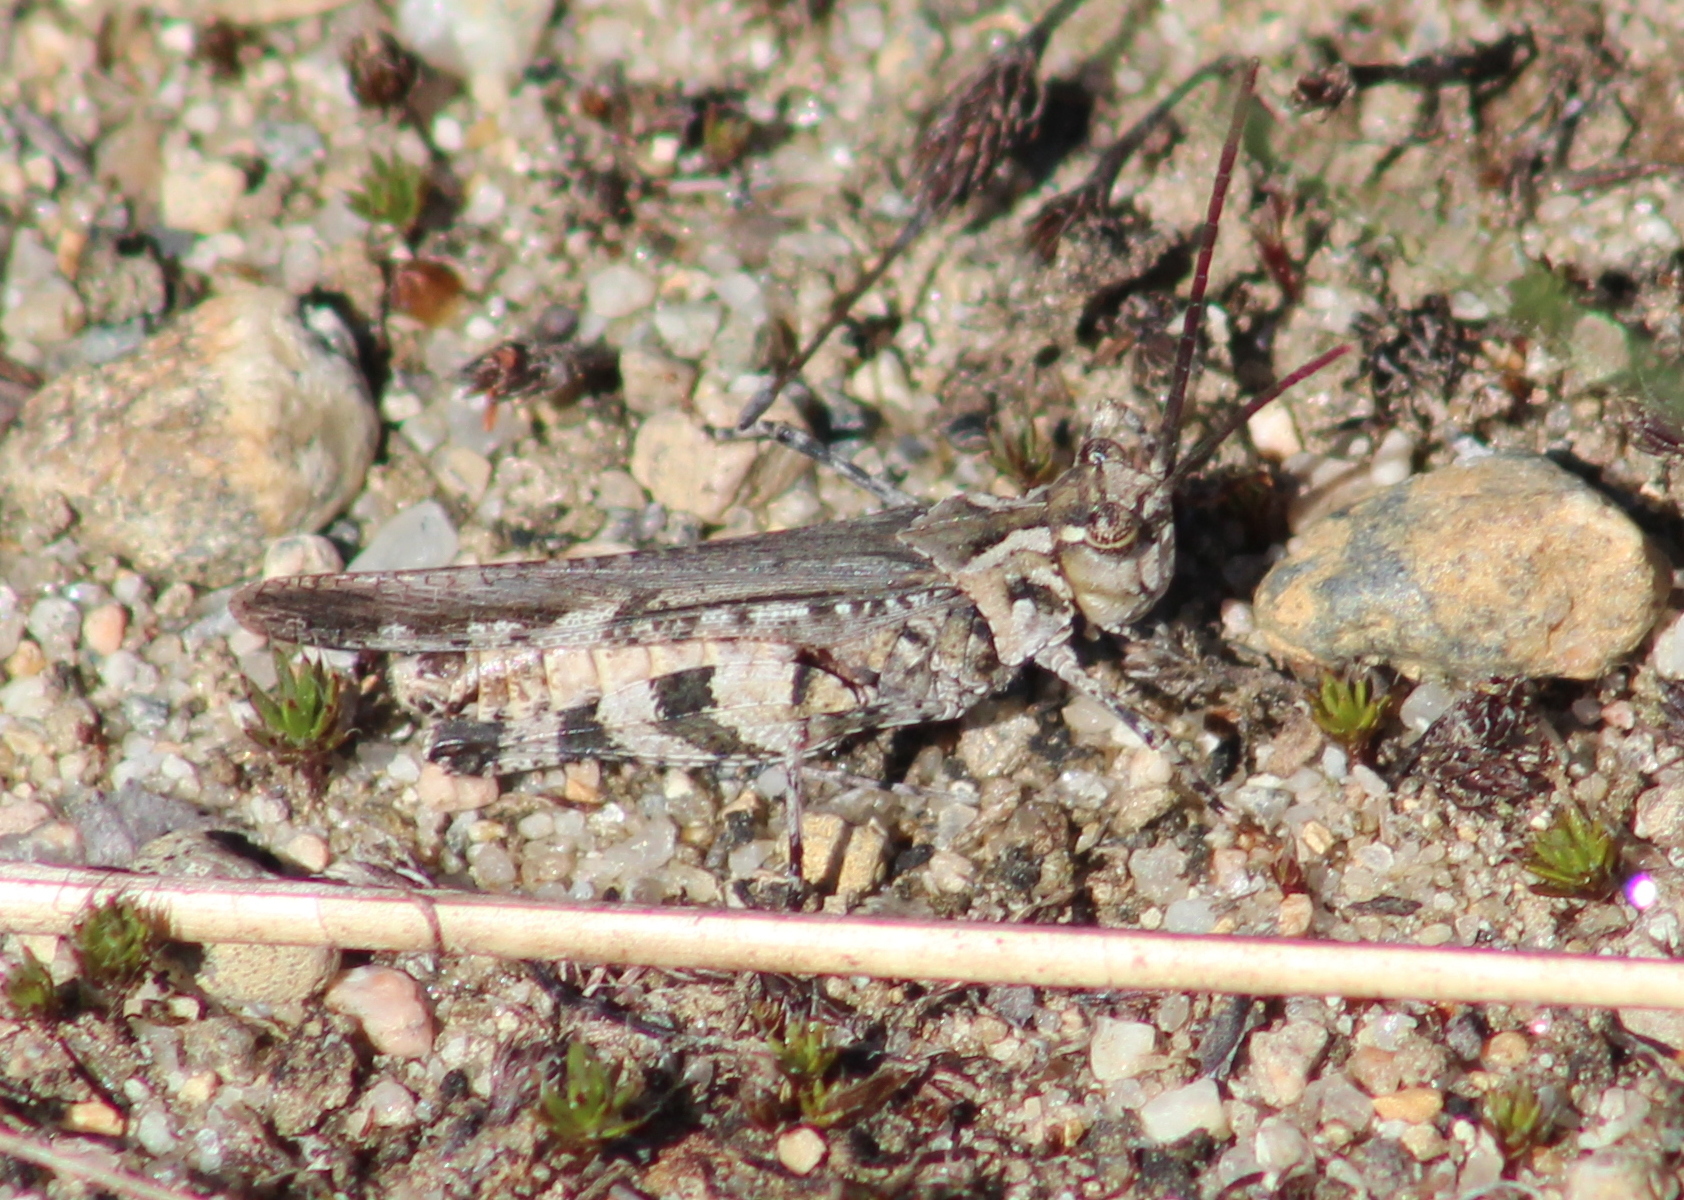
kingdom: Animalia
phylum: Arthropoda
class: Insecta
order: Orthoptera
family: Acrididae
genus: Psinidia
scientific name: Psinidia fenestralis
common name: Long-horned locust
